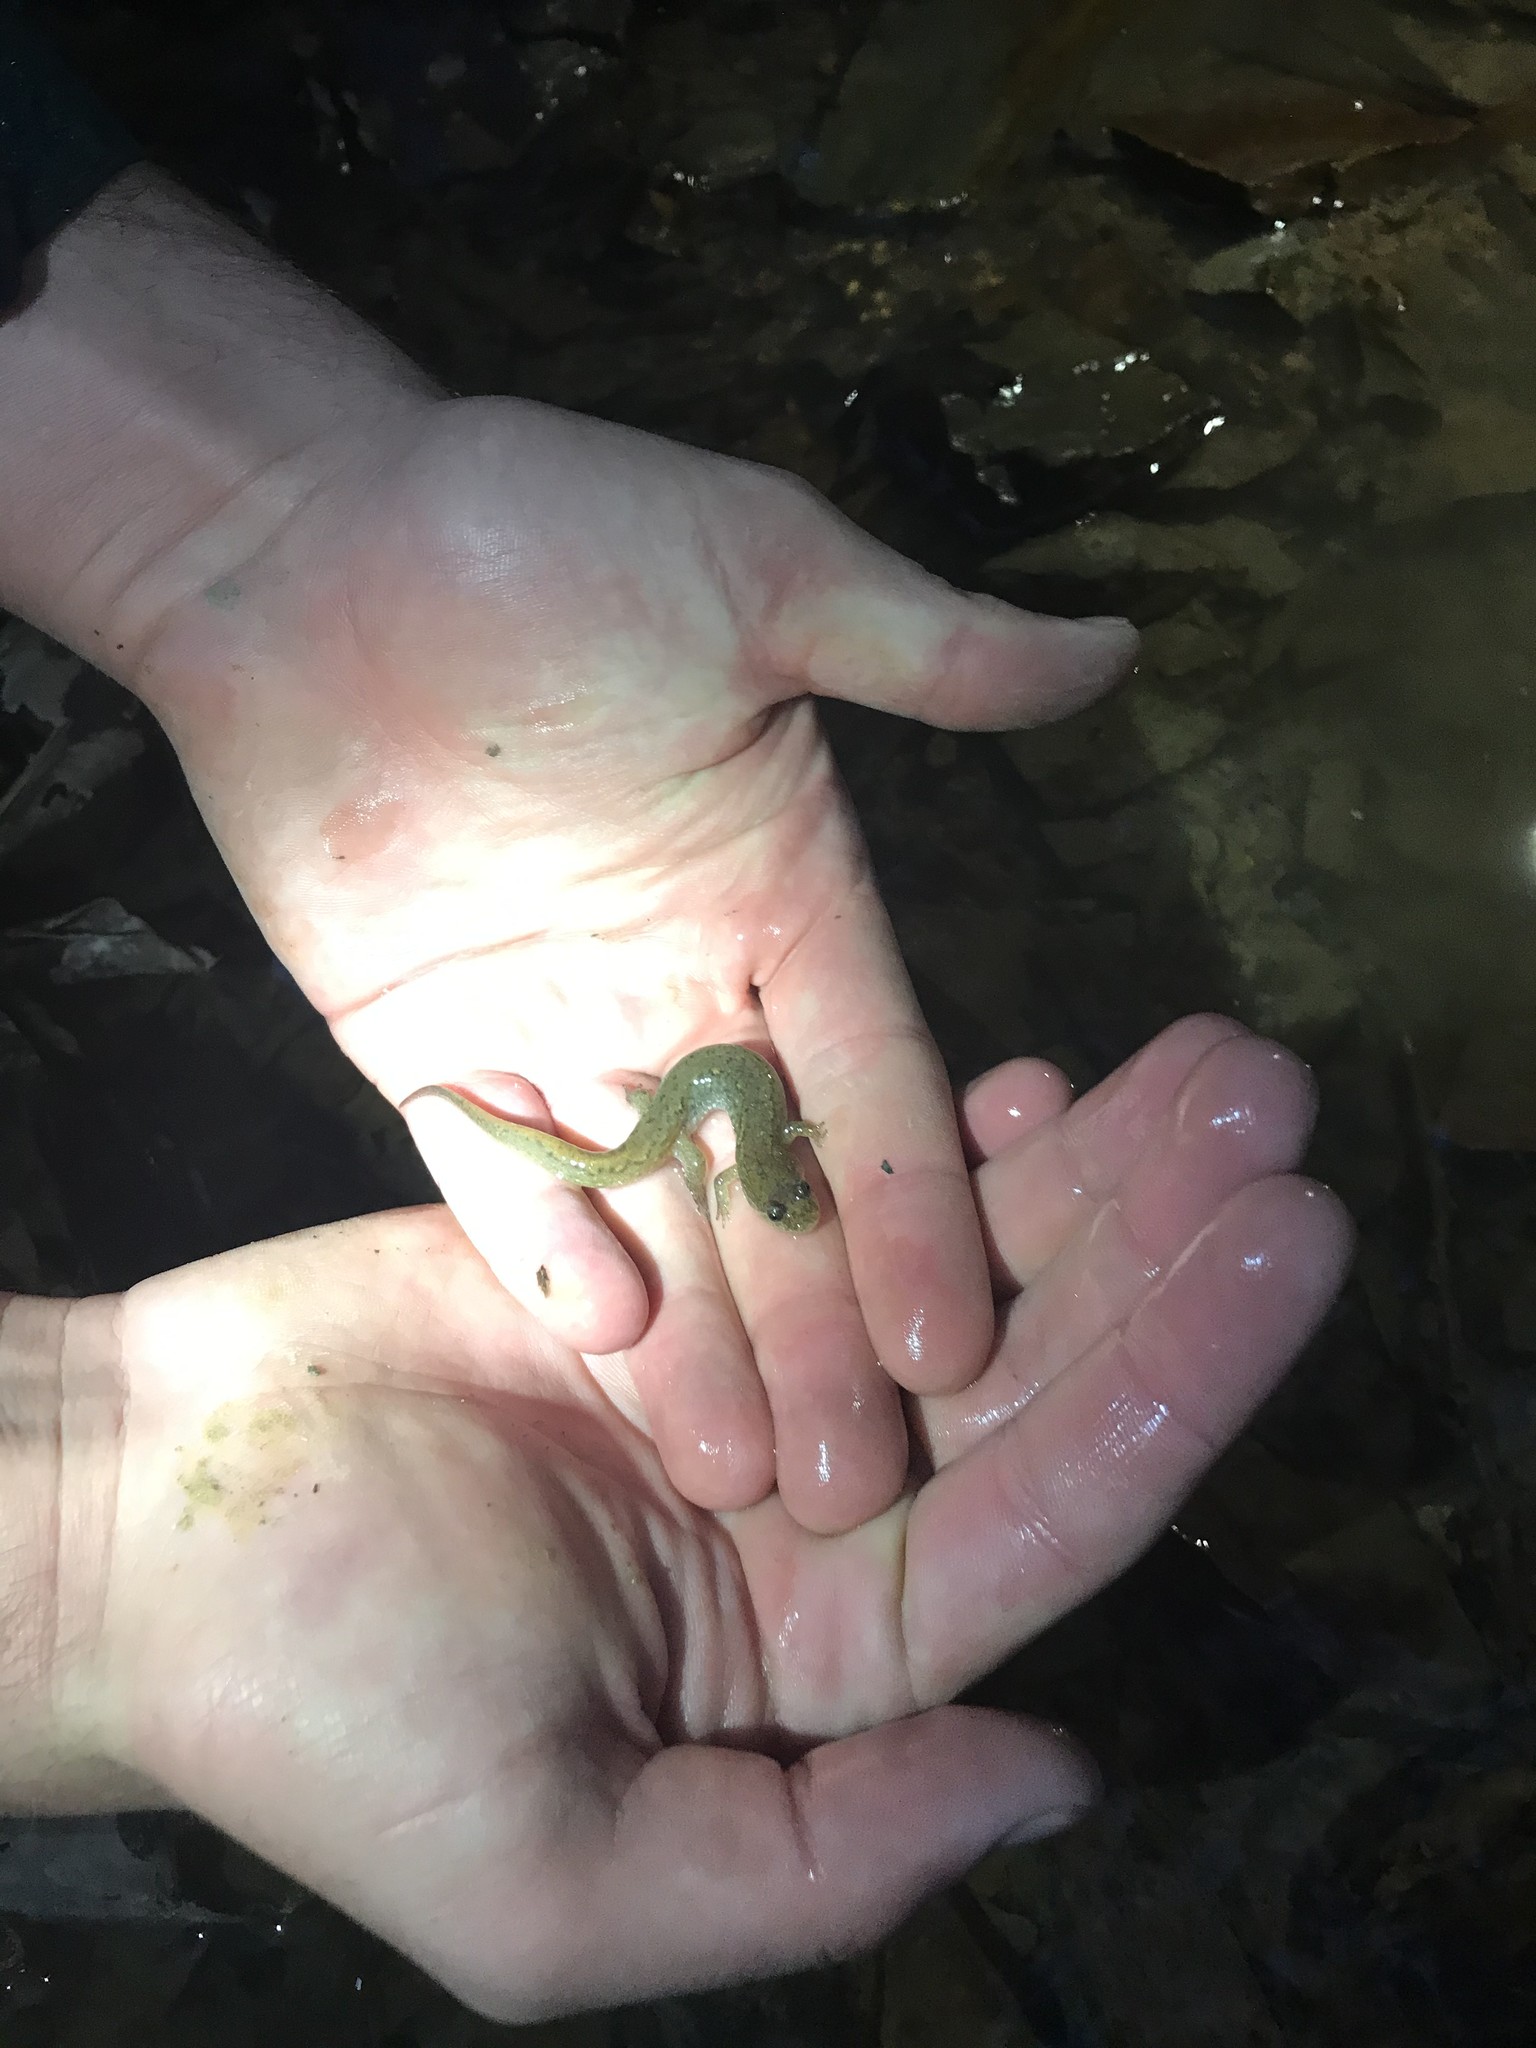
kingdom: Animalia
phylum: Chordata
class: Amphibia
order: Caudata
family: Plethodontidae
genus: Desmognathus
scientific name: Desmognathus fuscus
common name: Northern dusky salamander
